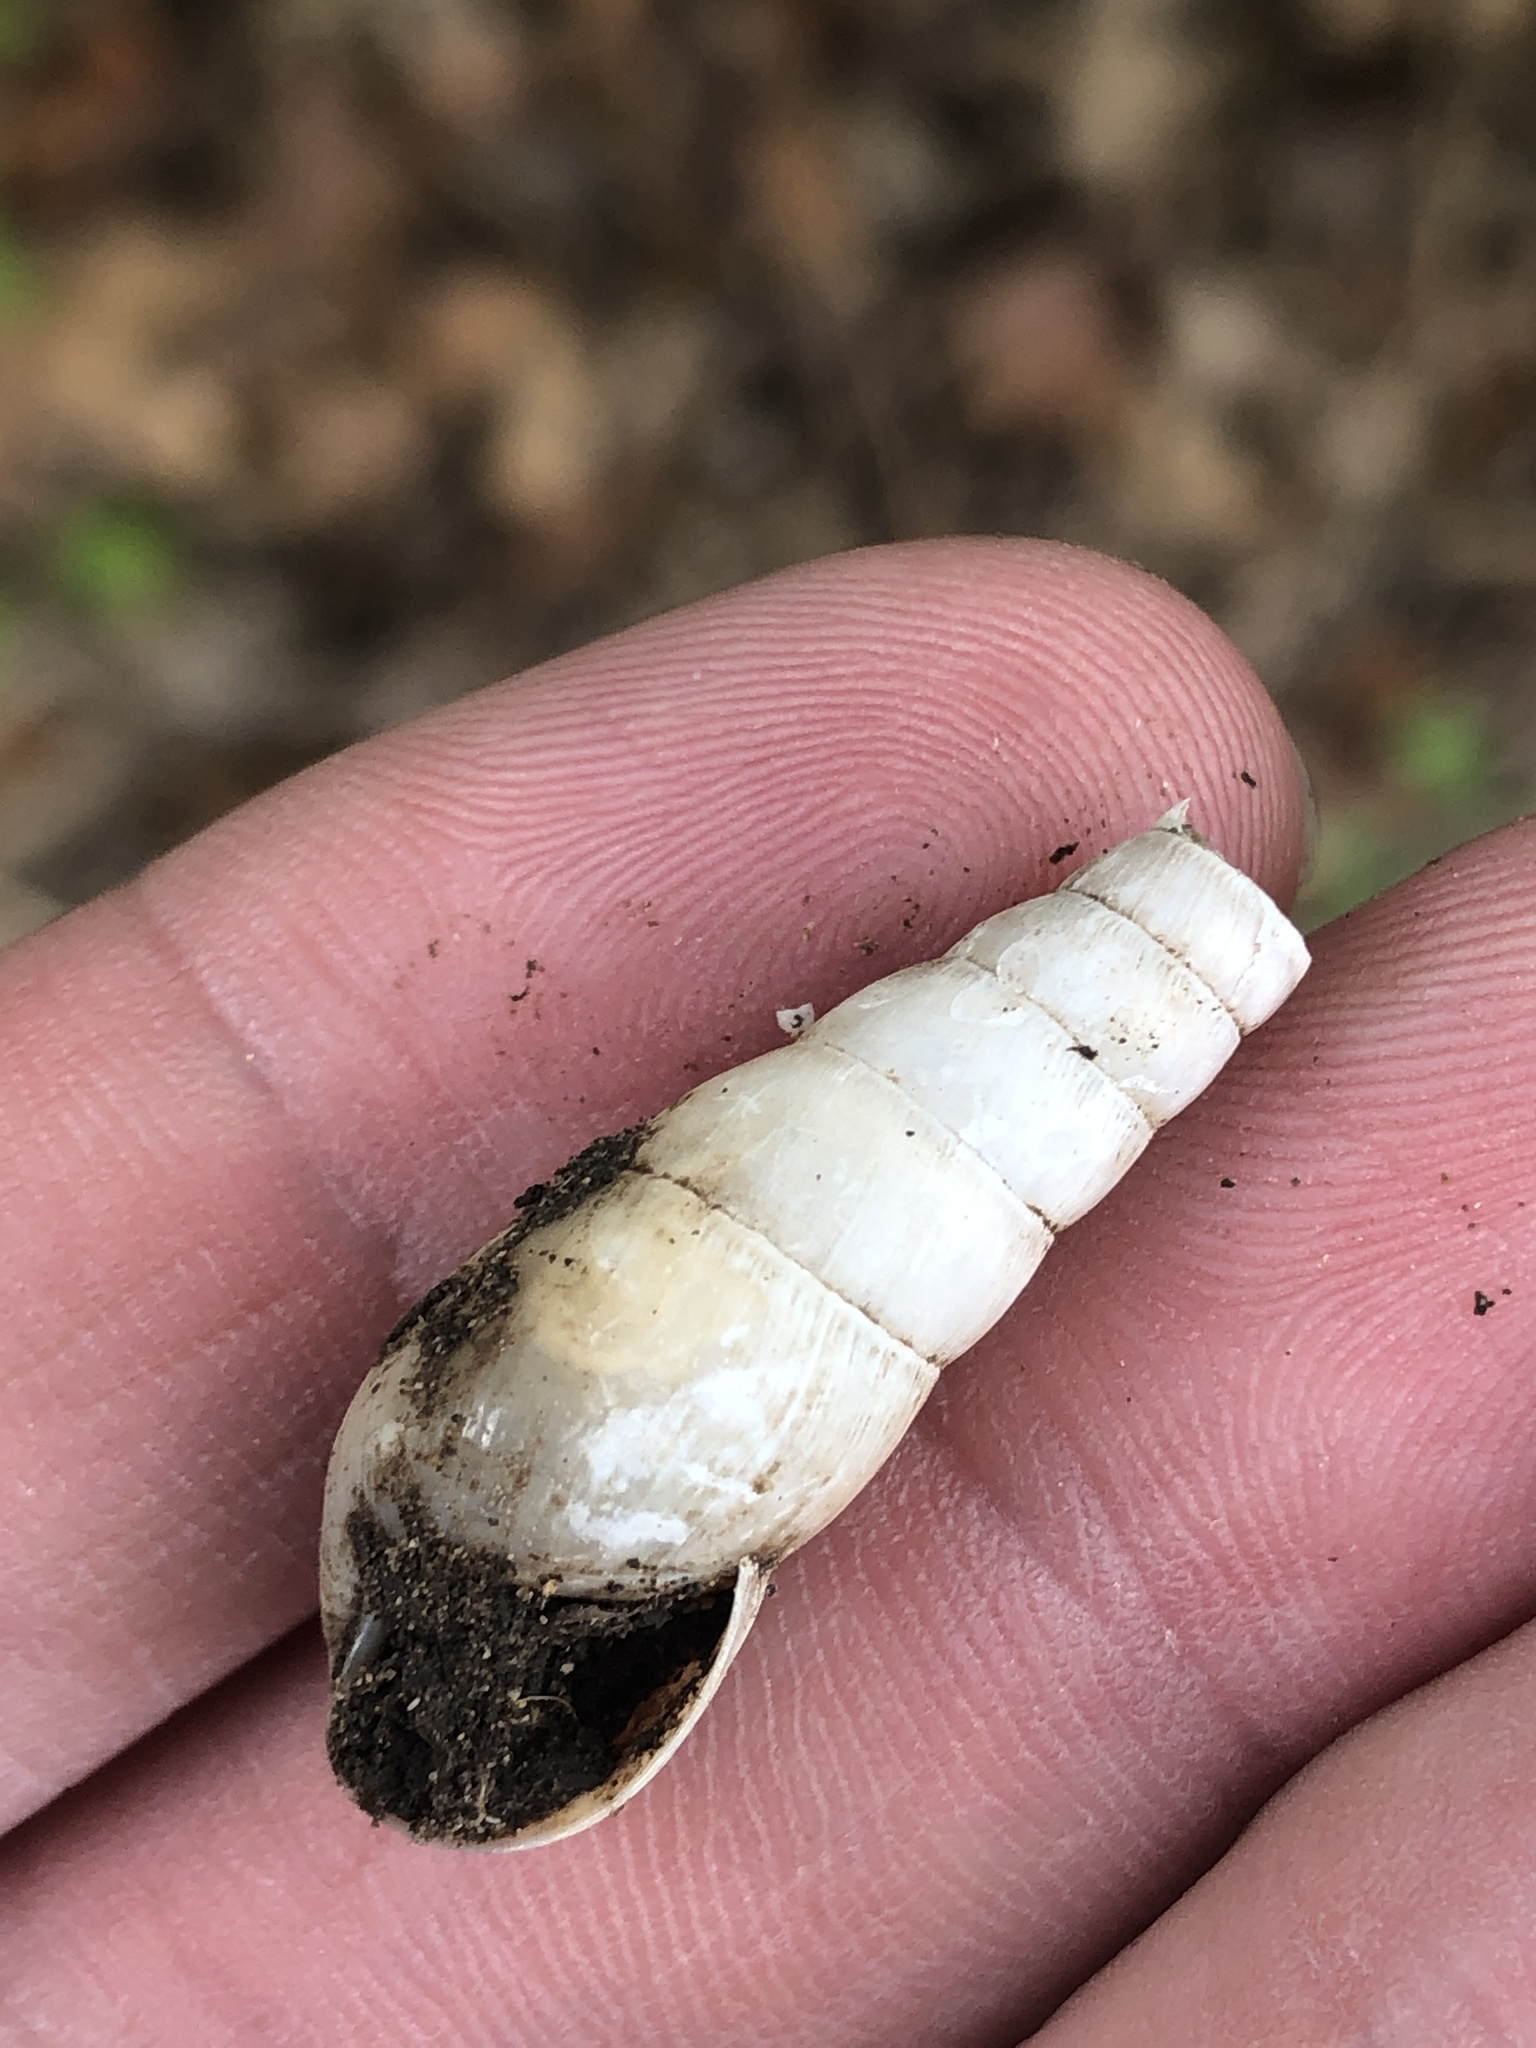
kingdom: Animalia
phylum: Mollusca
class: Gastropoda
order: Stylommatophora
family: Achatinidae
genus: Rumina
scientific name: Rumina decollata
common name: Decollate snail
